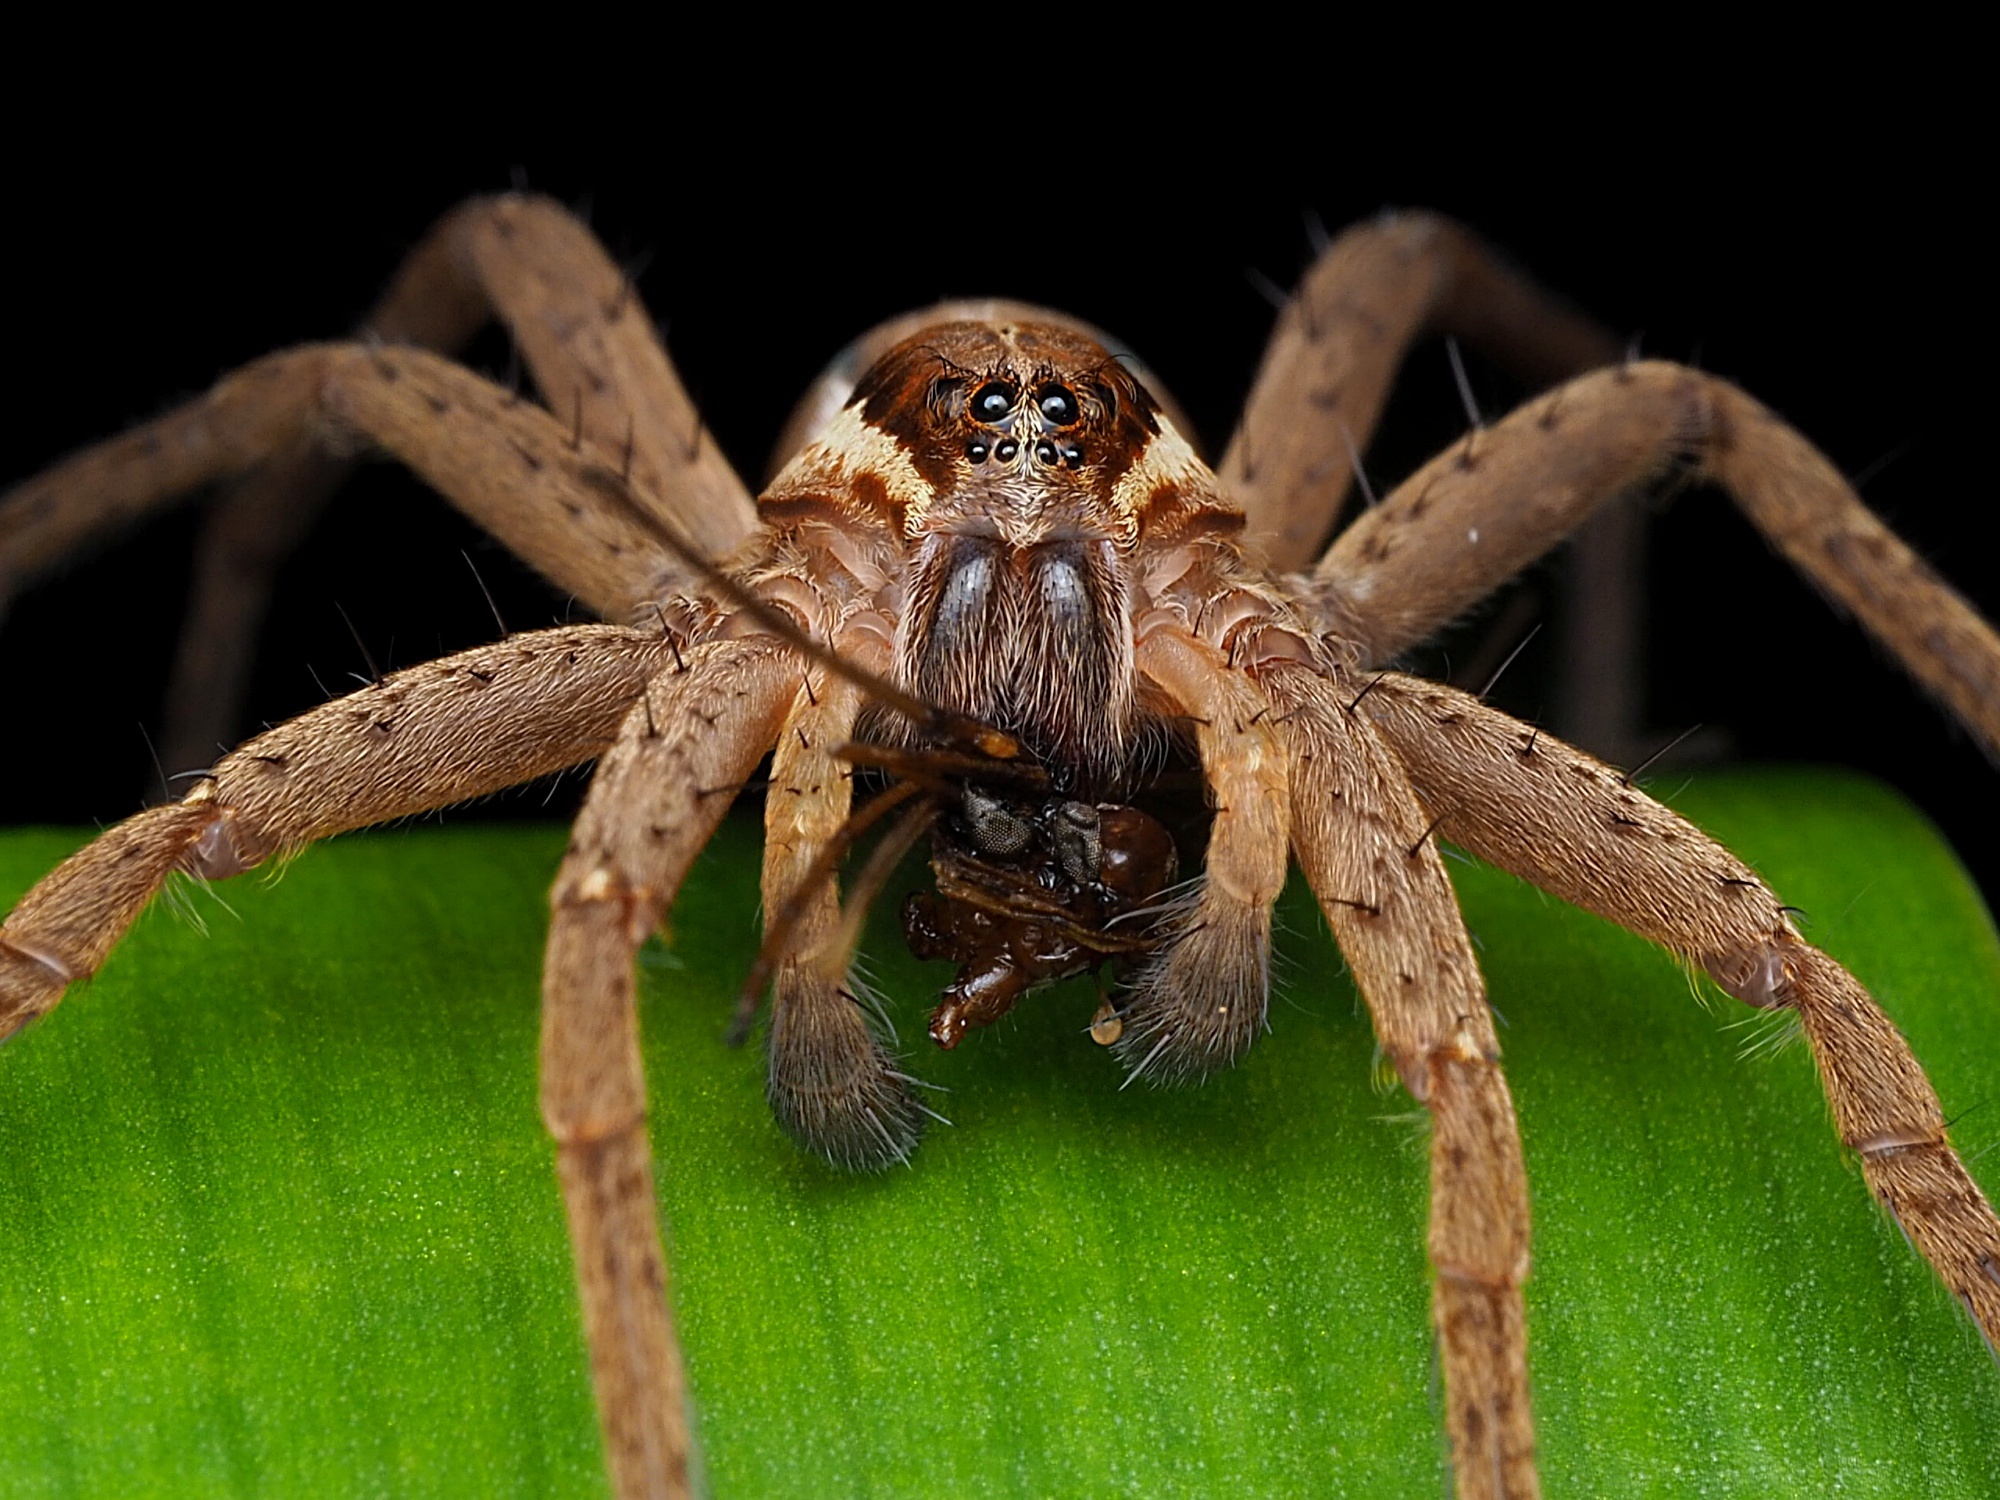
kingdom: Animalia
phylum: Arthropoda
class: Arachnida
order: Araneae
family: Pisauridae
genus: Dolomedes
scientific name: Dolomedes minor
